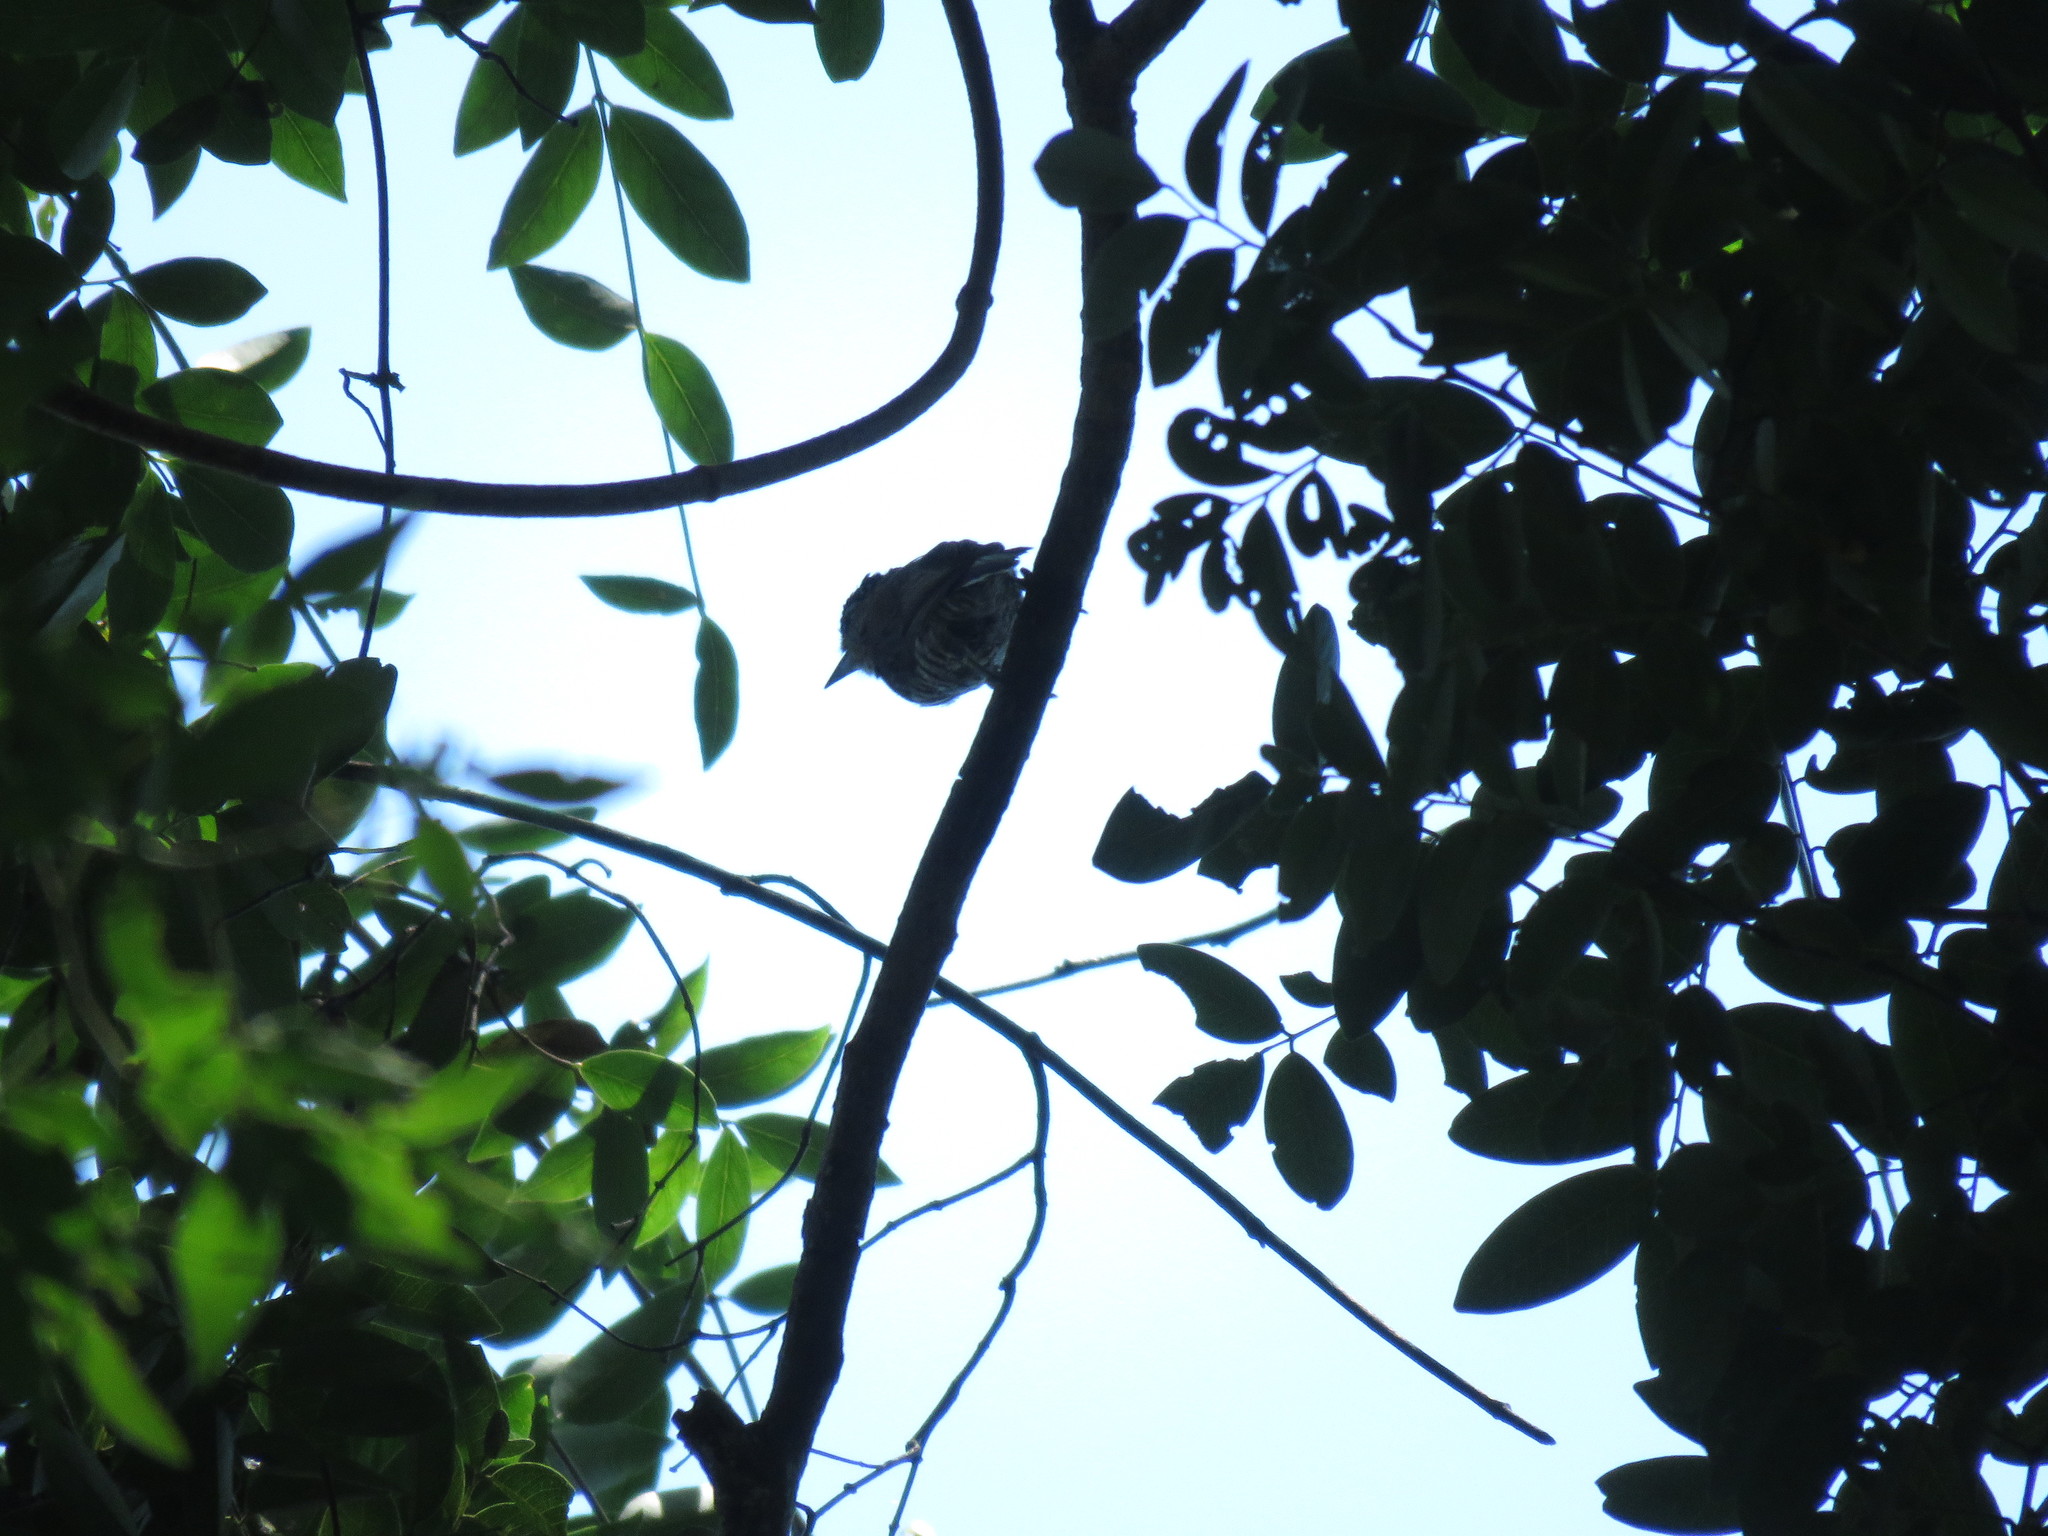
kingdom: Animalia
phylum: Chordata
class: Aves
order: Piciformes
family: Picidae
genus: Picumnus
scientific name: Picumnus temminckii
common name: Ochre-collared piculet
